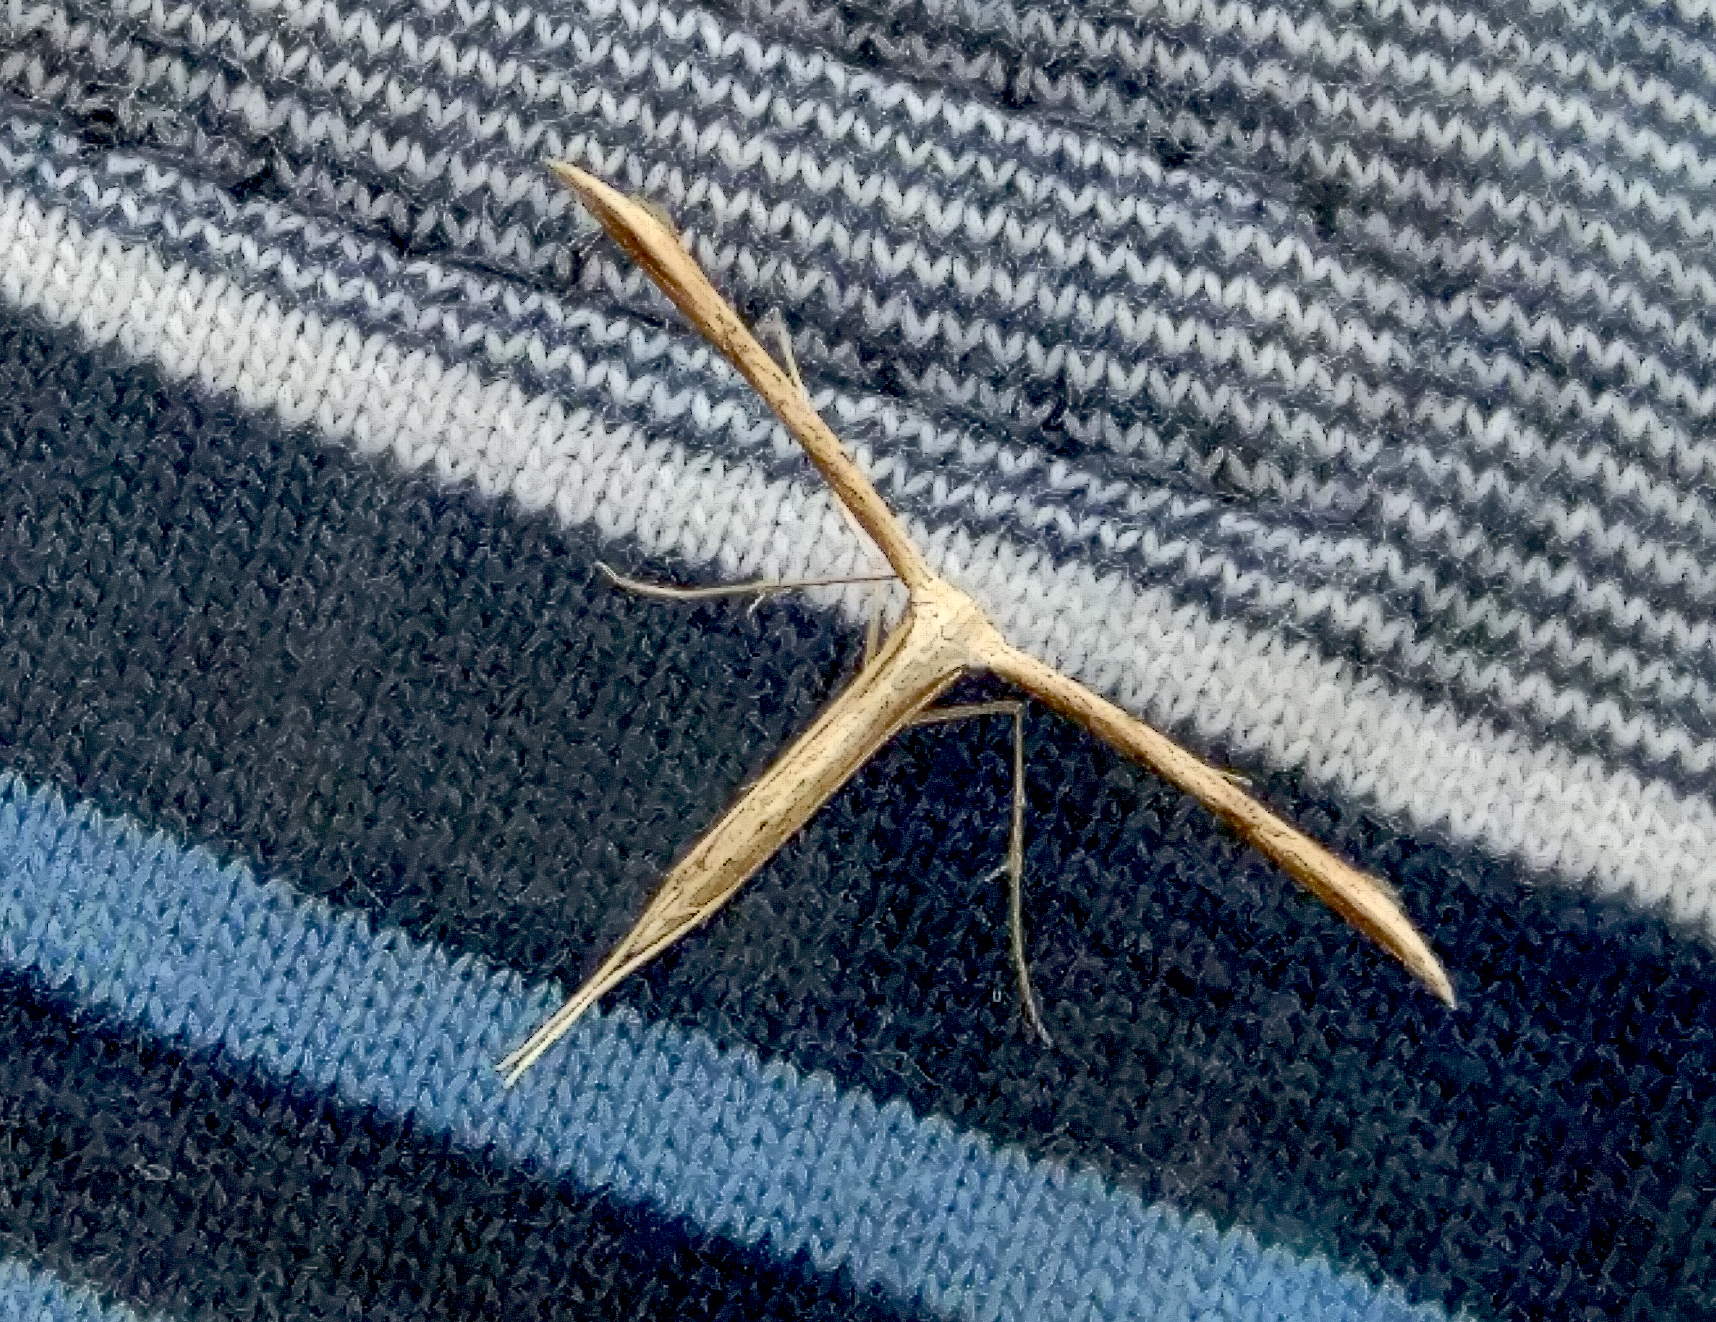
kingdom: Animalia
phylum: Arthropoda
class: Insecta
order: Lepidoptera
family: Pterophoridae
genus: Emmelina
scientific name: Emmelina monodactyla
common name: Common plume
